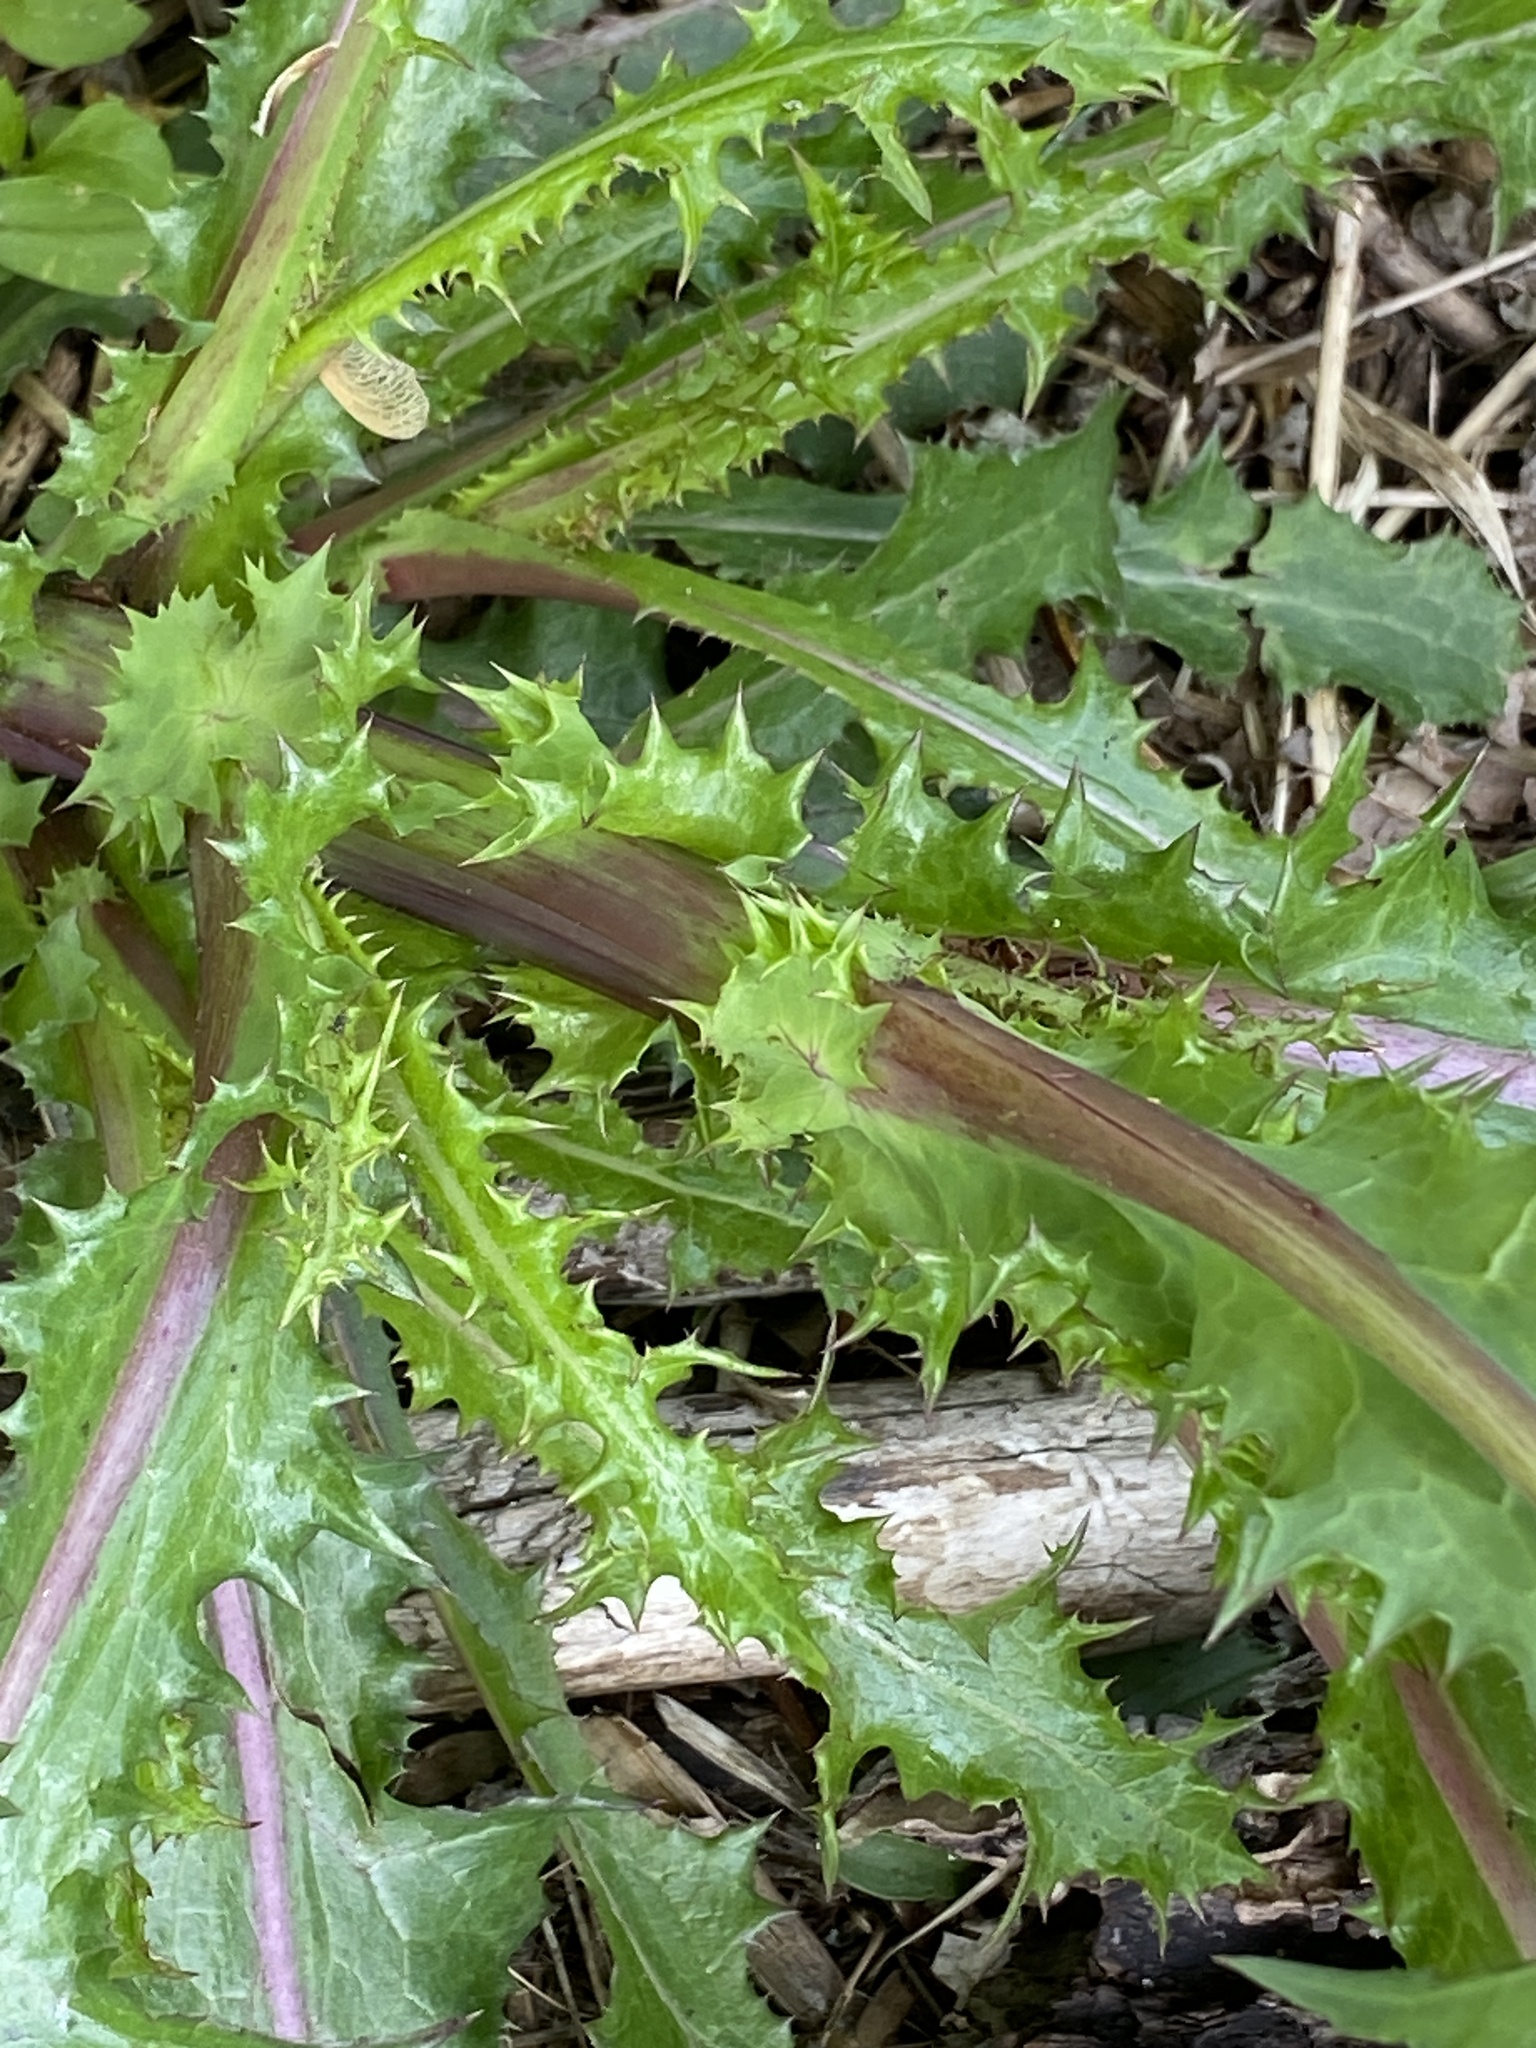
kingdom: Plantae
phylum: Tracheophyta
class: Magnoliopsida
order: Asterales
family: Asteraceae
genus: Sonchus
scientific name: Sonchus asper
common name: Prickly sow-thistle
